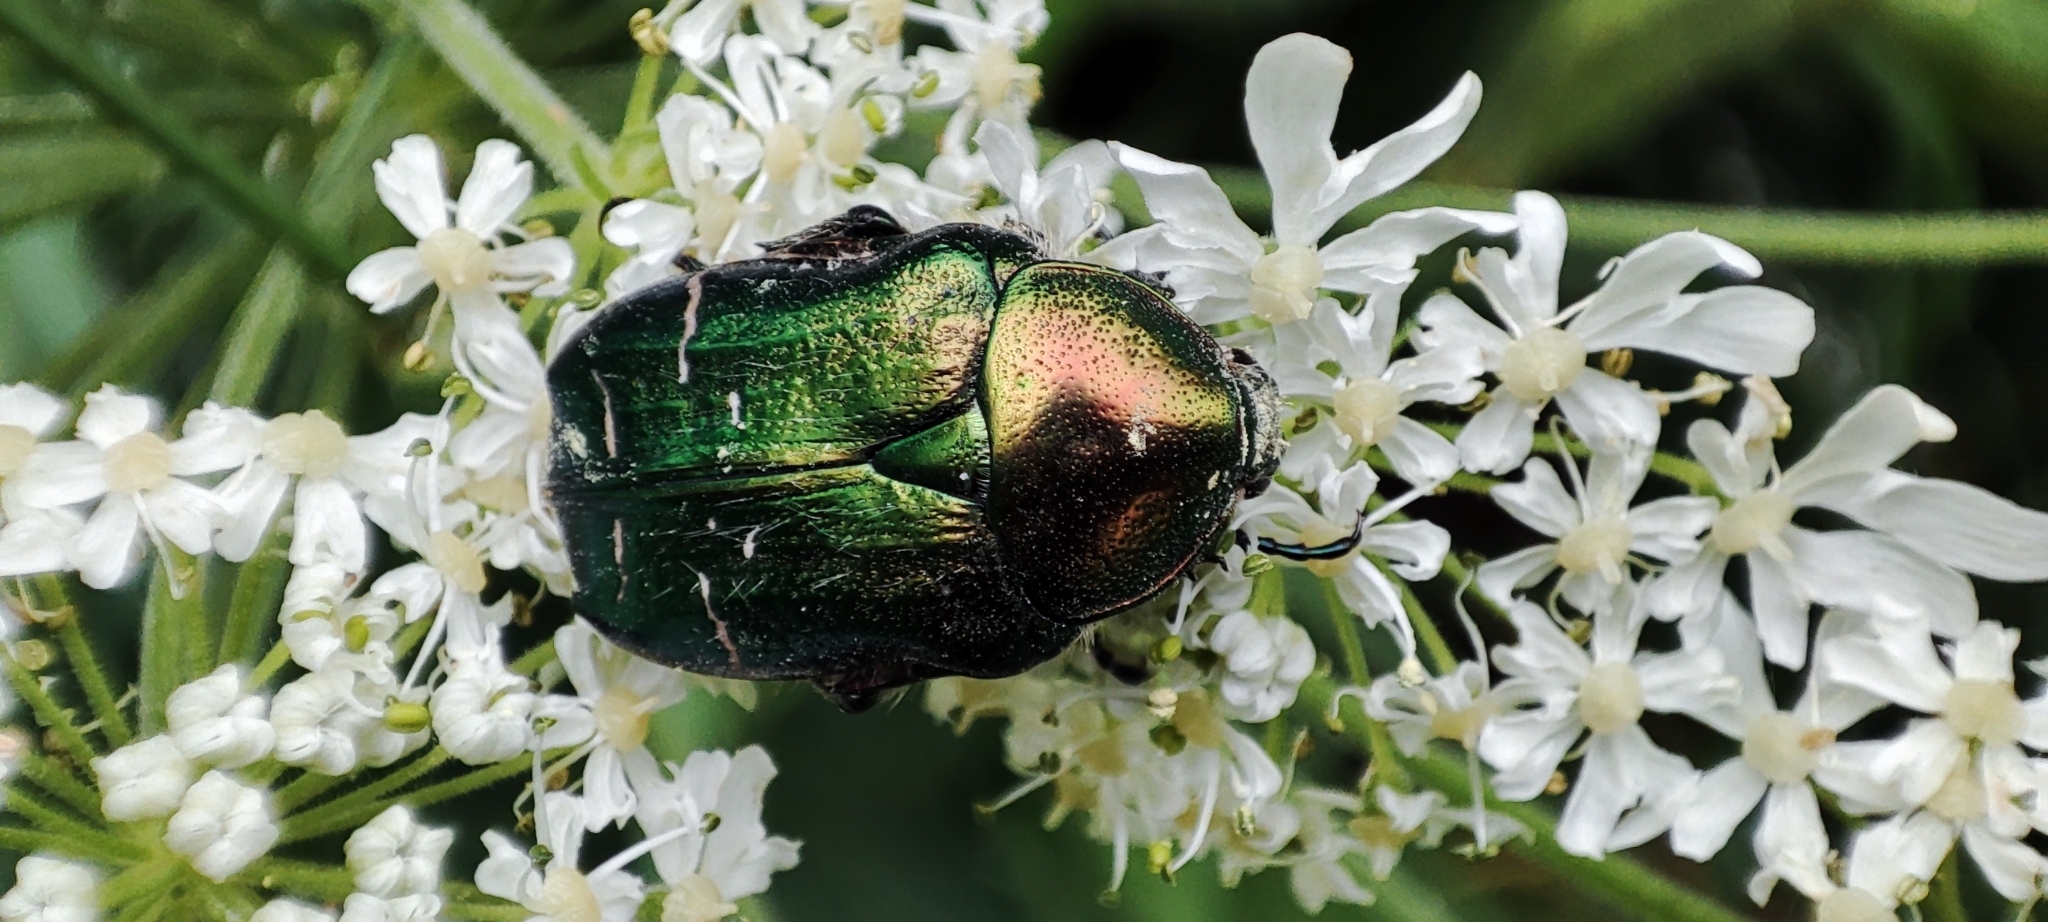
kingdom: Animalia
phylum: Arthropoda
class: Insecta
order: Coleoptera
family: Scarabaeidae
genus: Cetonia
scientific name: Cetonia aurata
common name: Rose chafer
